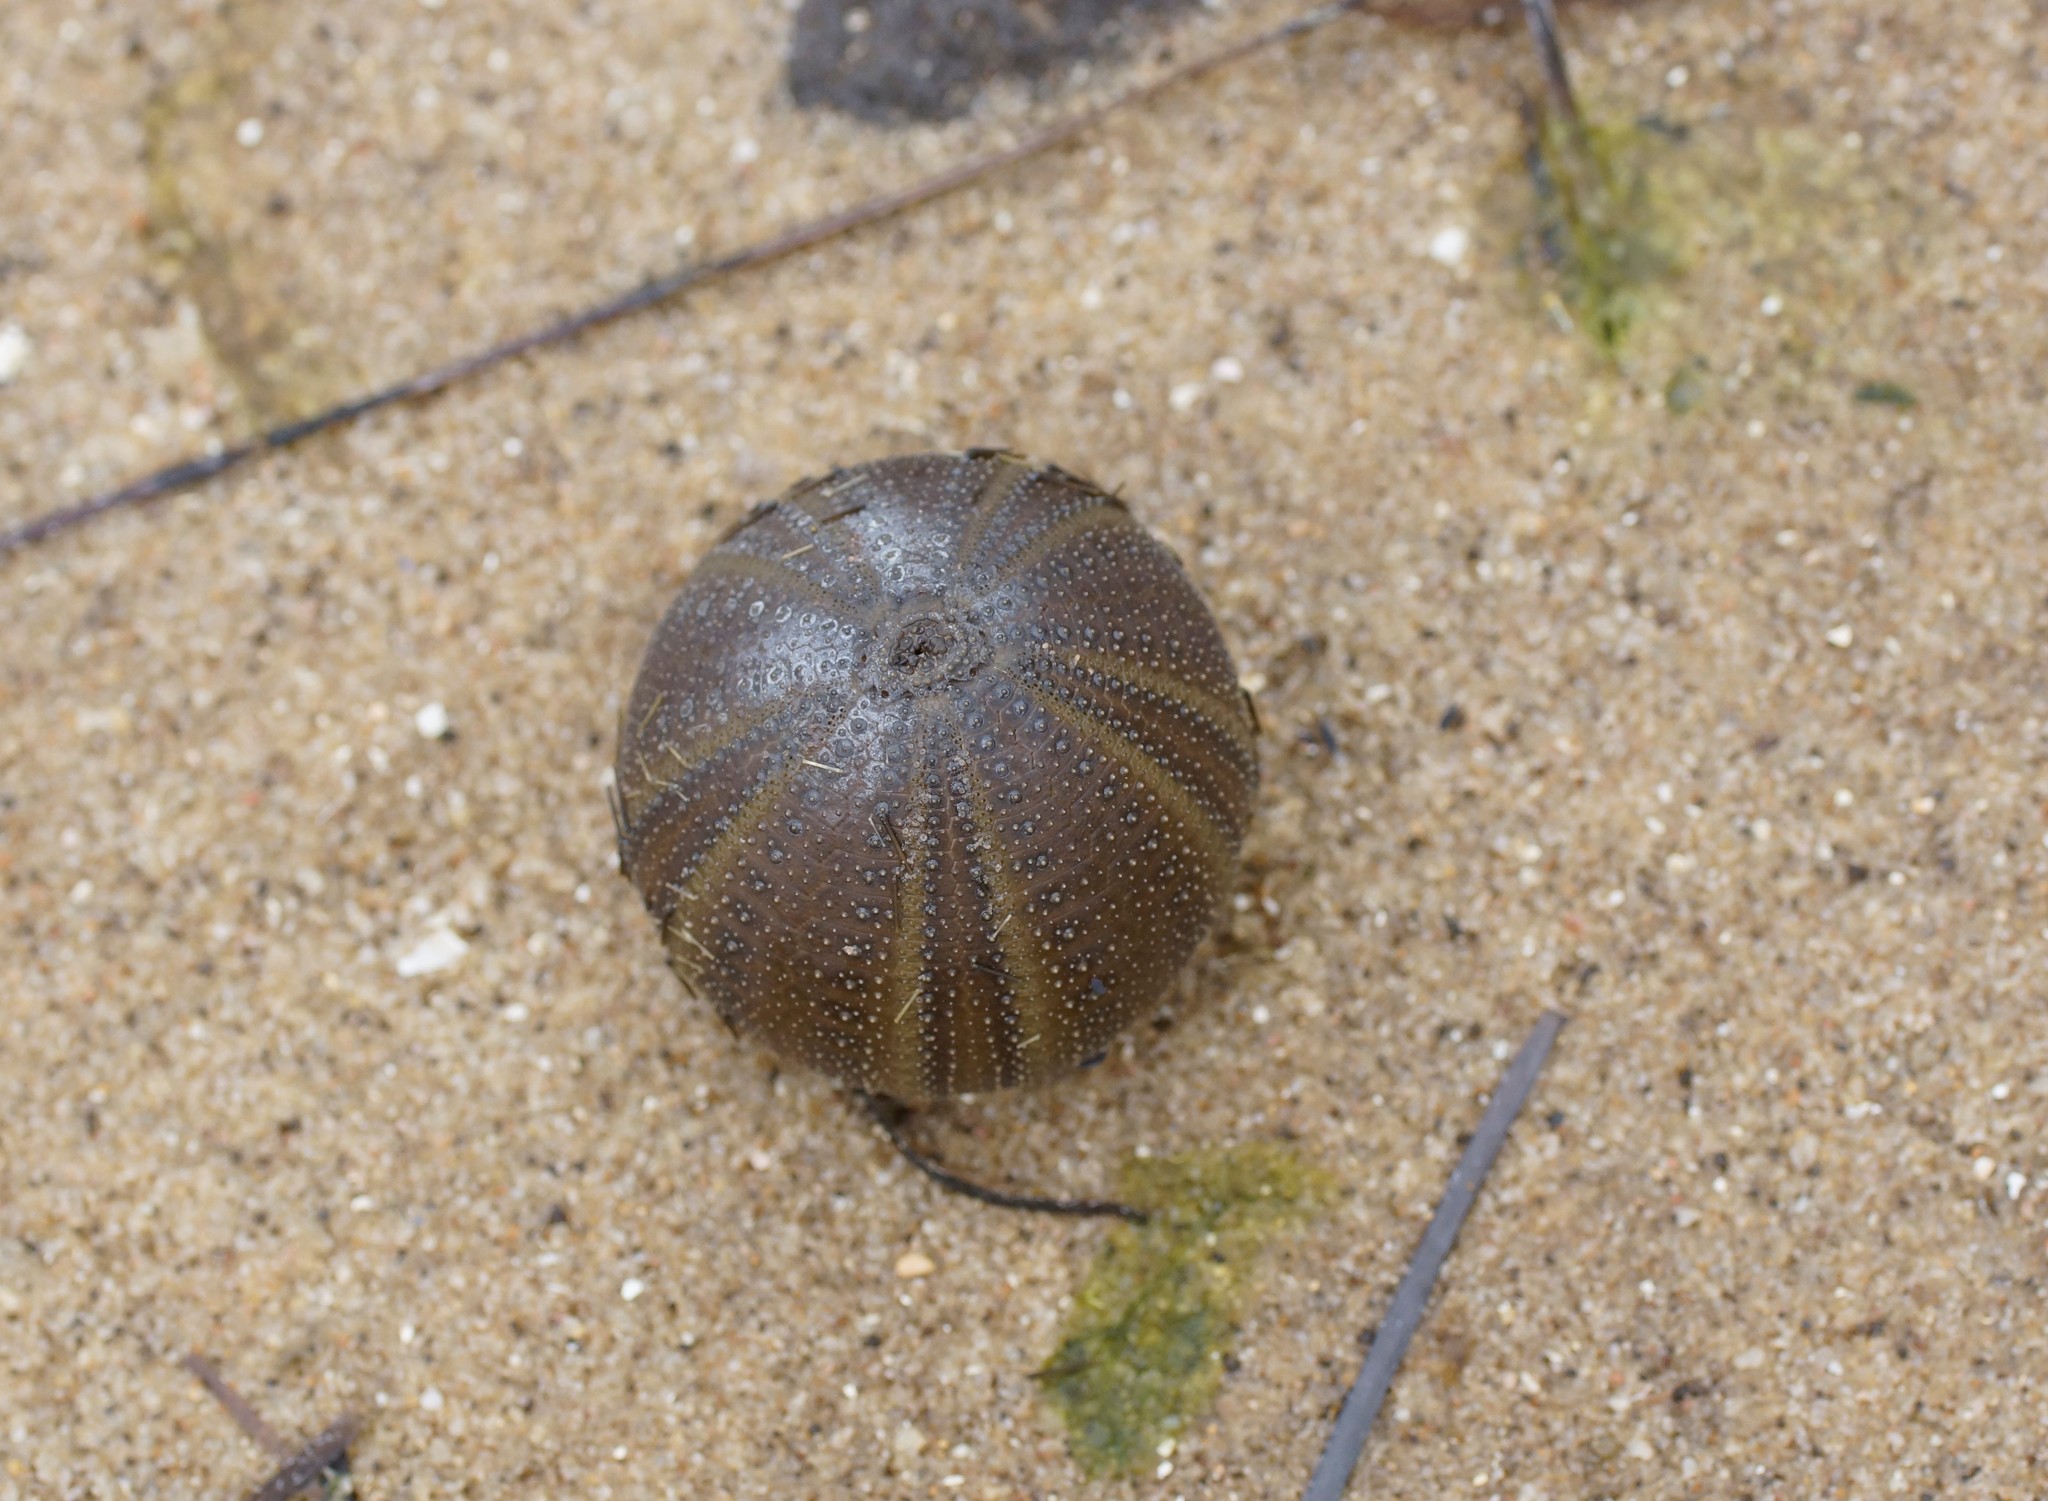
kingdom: Animalia
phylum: Echinodermata
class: Echinoidea
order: Camarodonta
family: Temnopleuridae
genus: Amblypneustes
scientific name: Amblypneustes ovum
